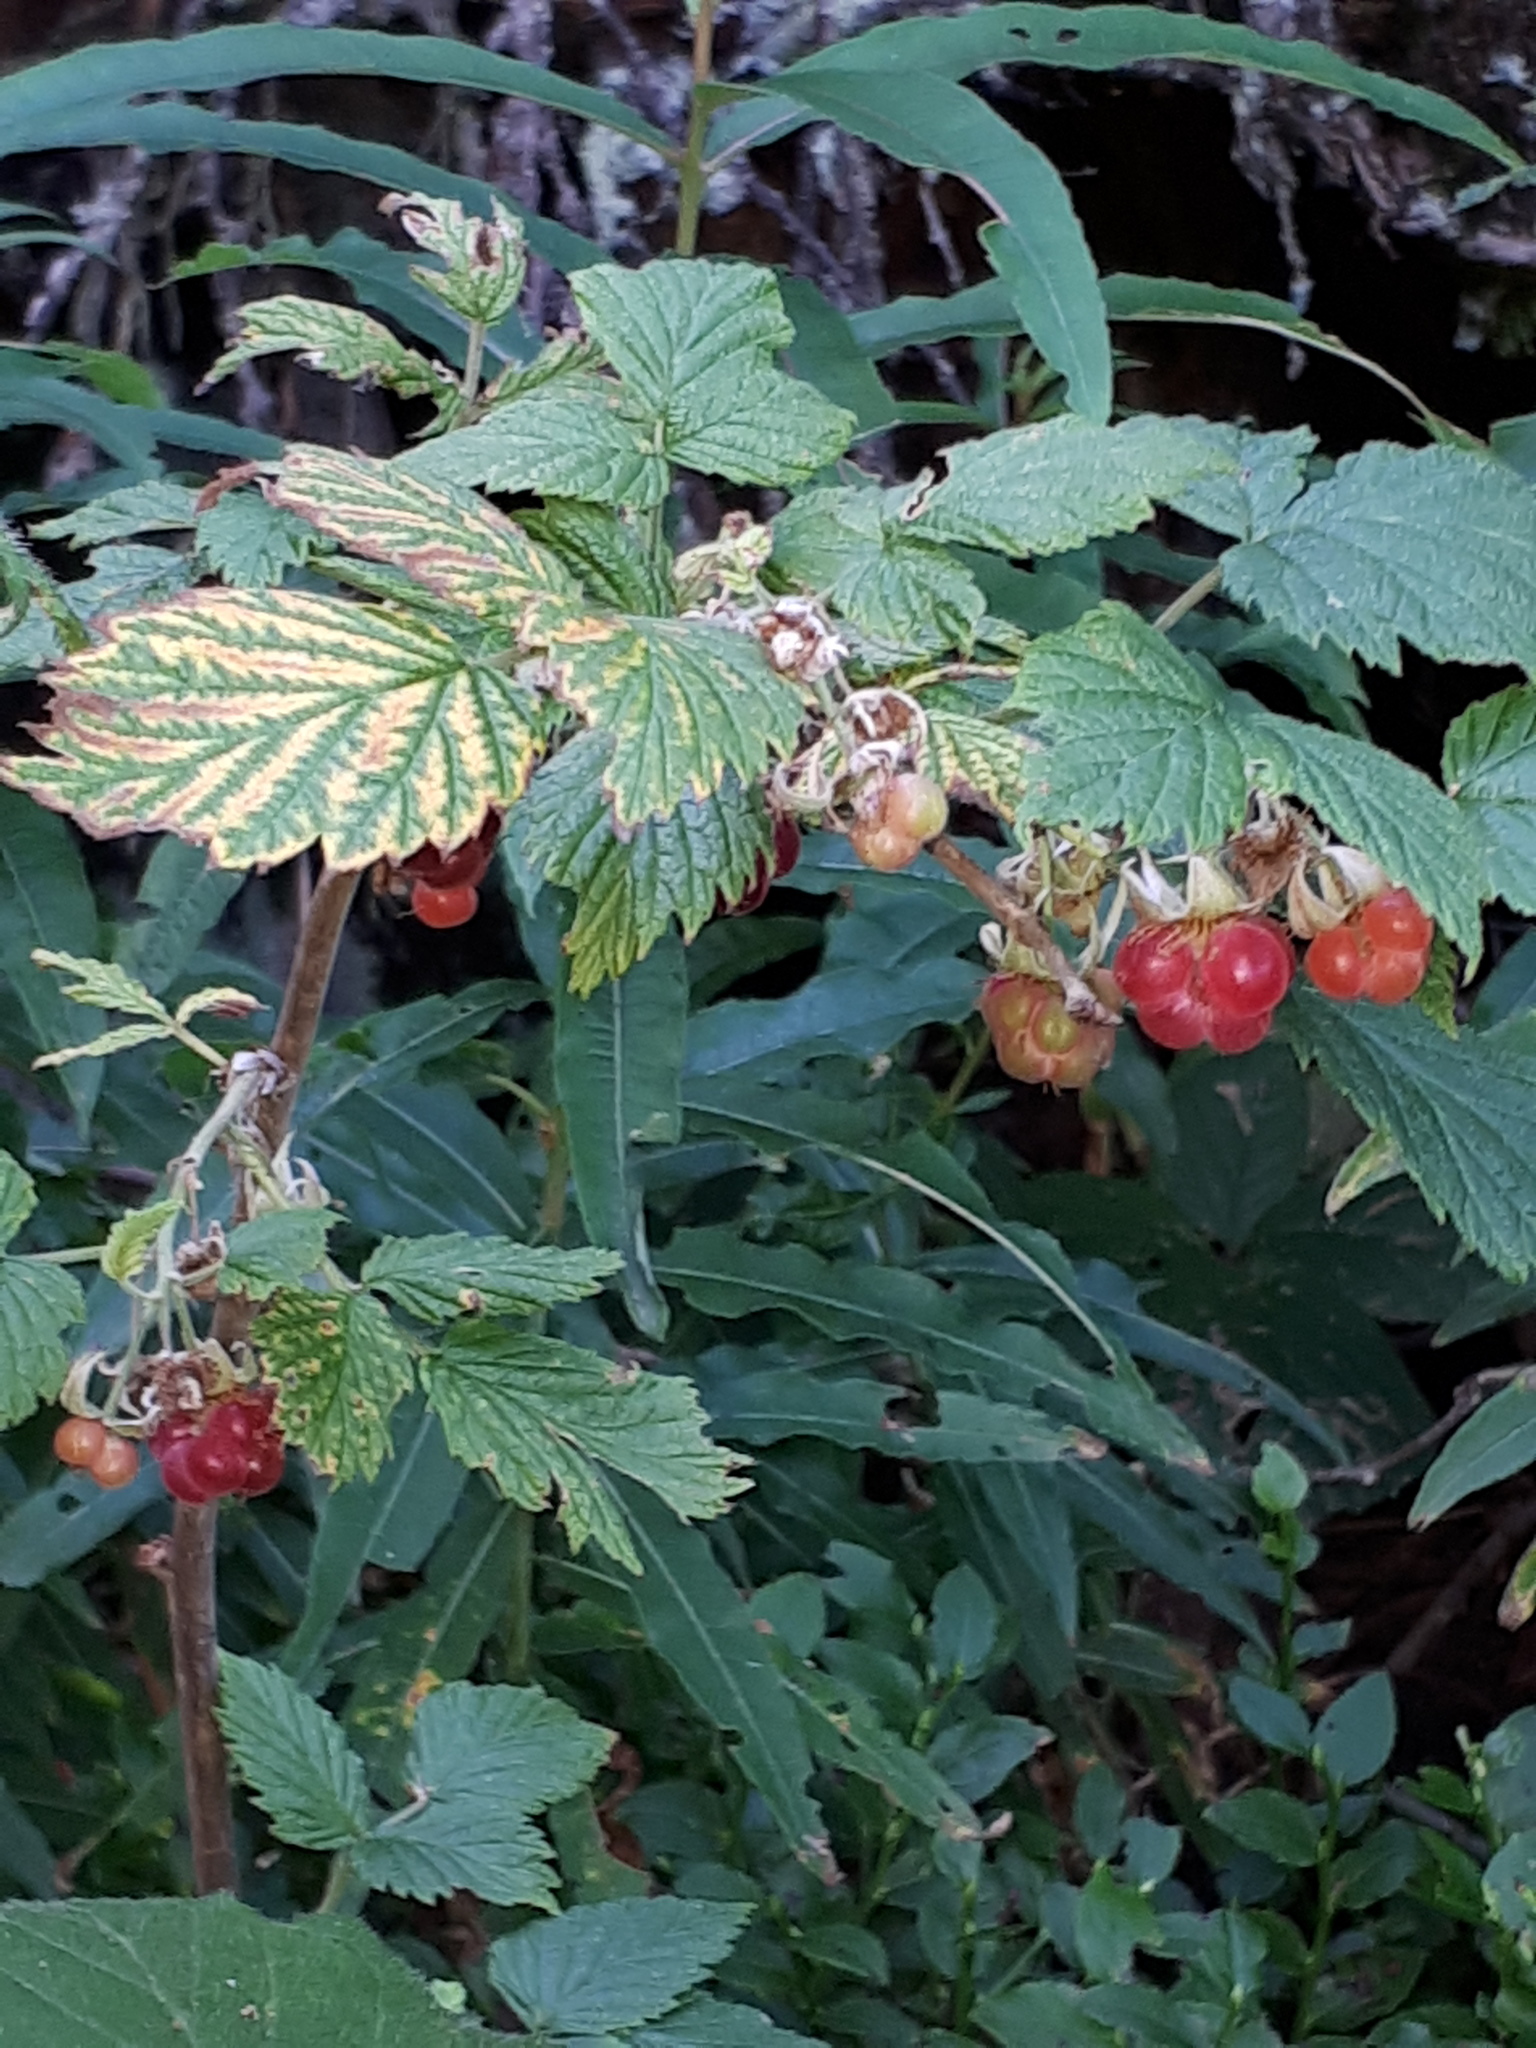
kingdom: Plantae
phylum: Tracheophyta
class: Magnoliopsida
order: Rosales
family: Rosaceae
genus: Rubus
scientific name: Rubus idaeus
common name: Raspberry
